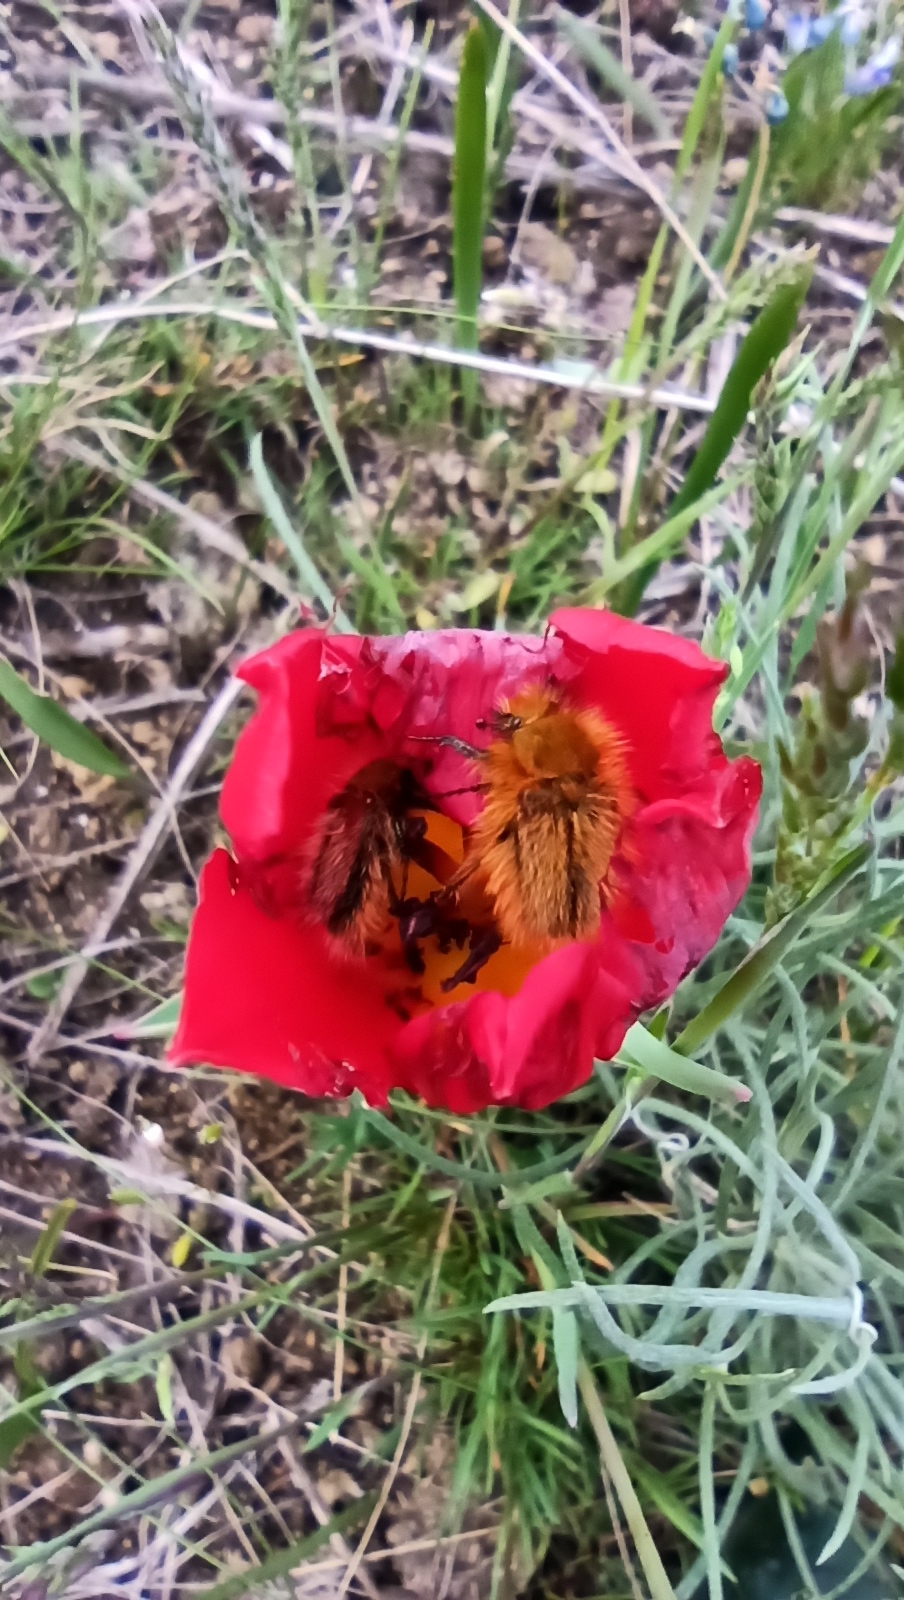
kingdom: Animalia
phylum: Arthropoda
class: Insecta
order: Coleoptera
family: Glaphyridae
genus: Pygopleurus
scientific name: Pygopleurus vulpes
